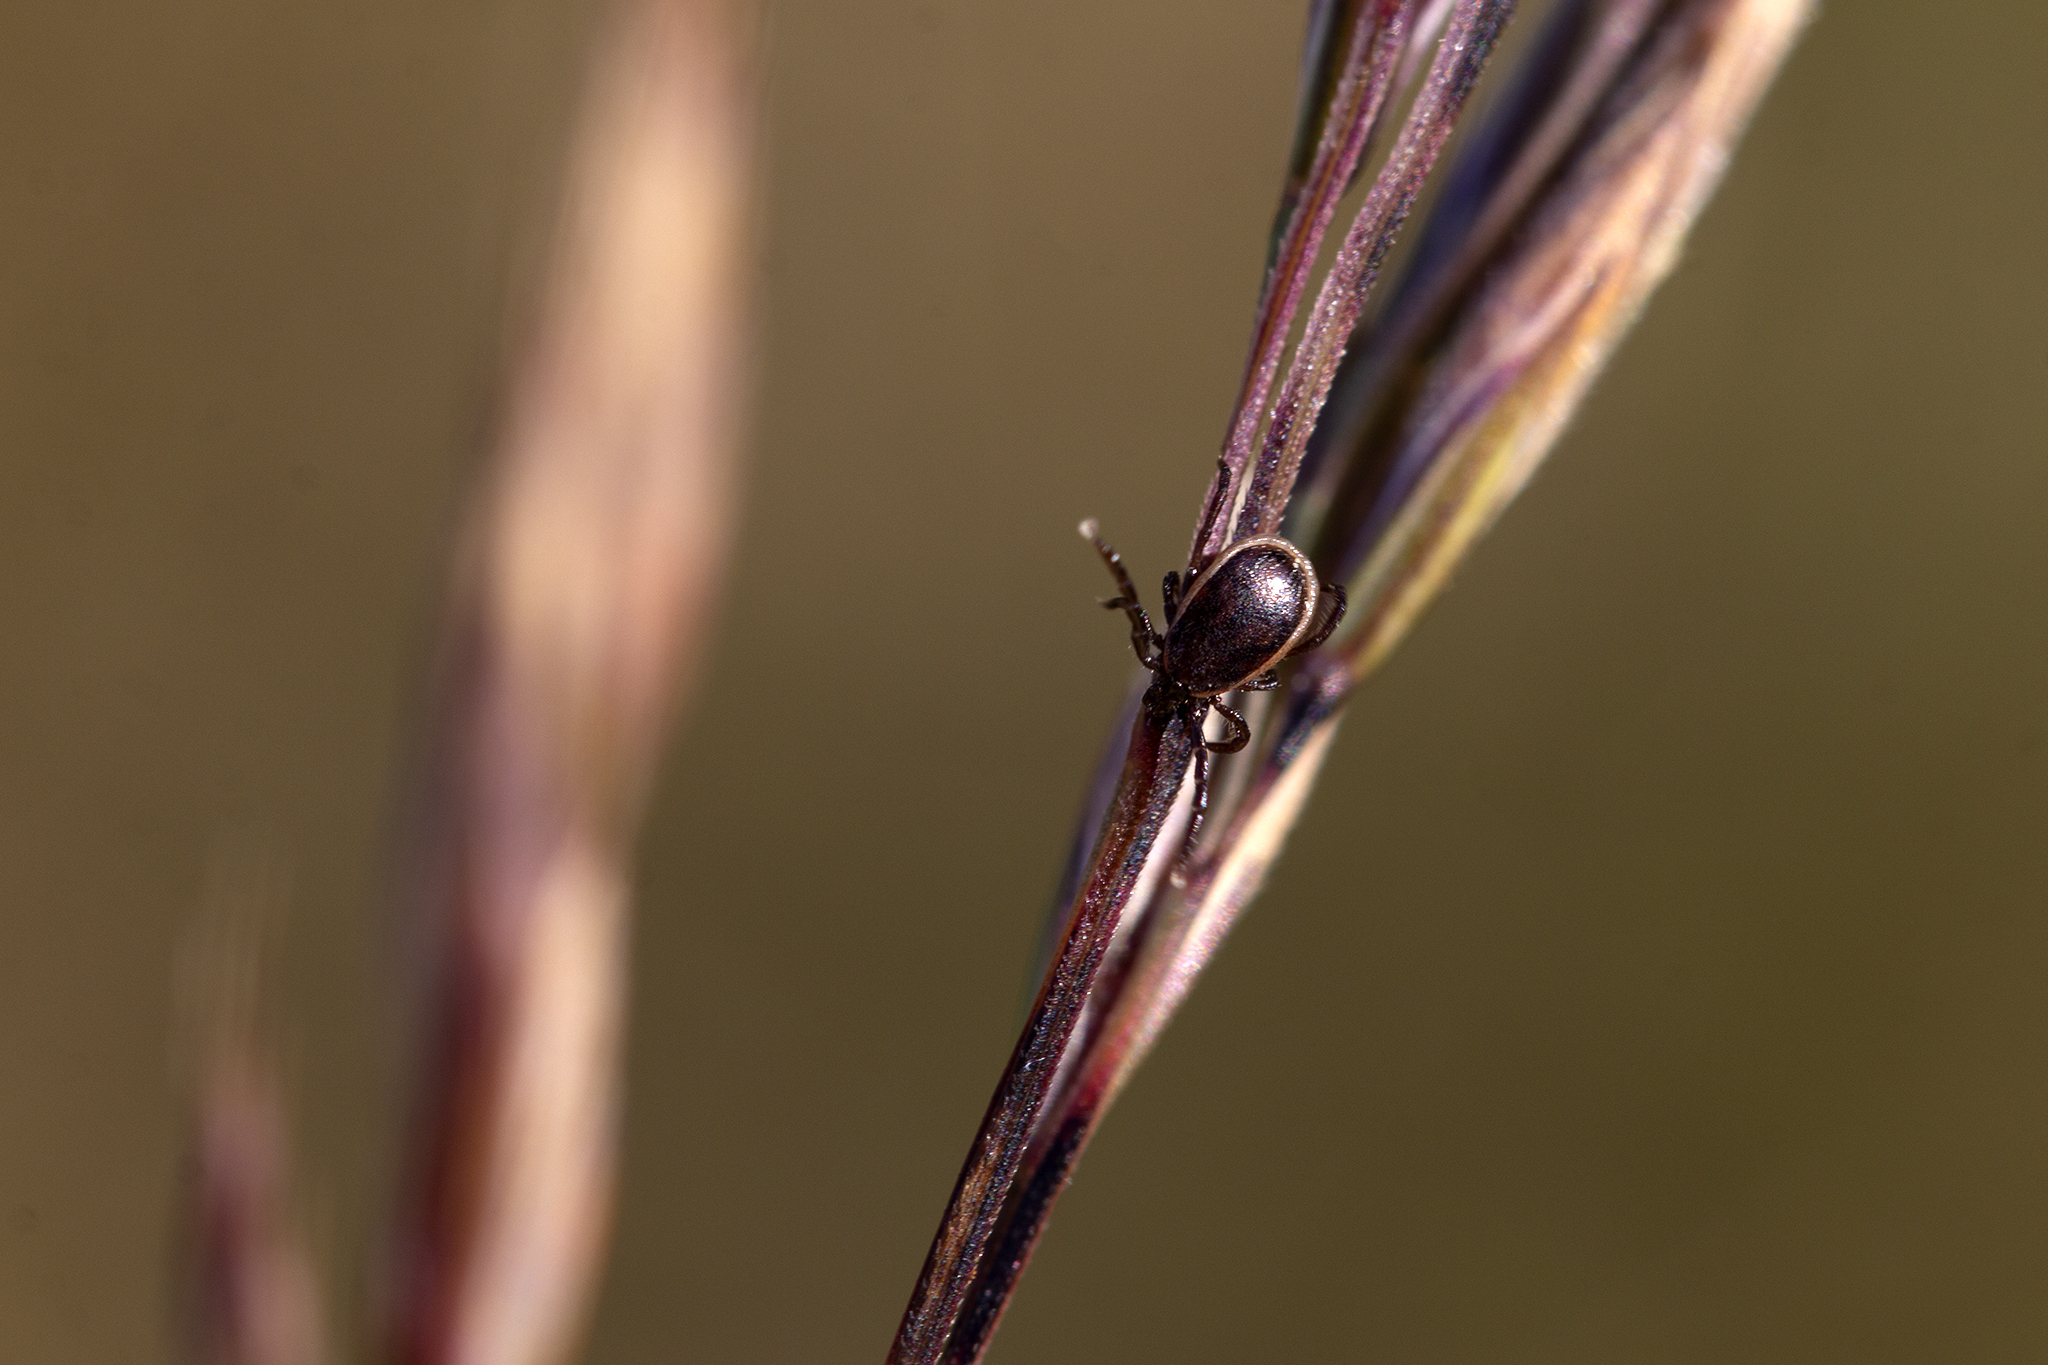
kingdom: Animalia
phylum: Arthropoda
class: Arachnida
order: Ixodida
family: Ixodidae
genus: Ixodes
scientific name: Ixodes ricinus
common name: Castor bean tick
